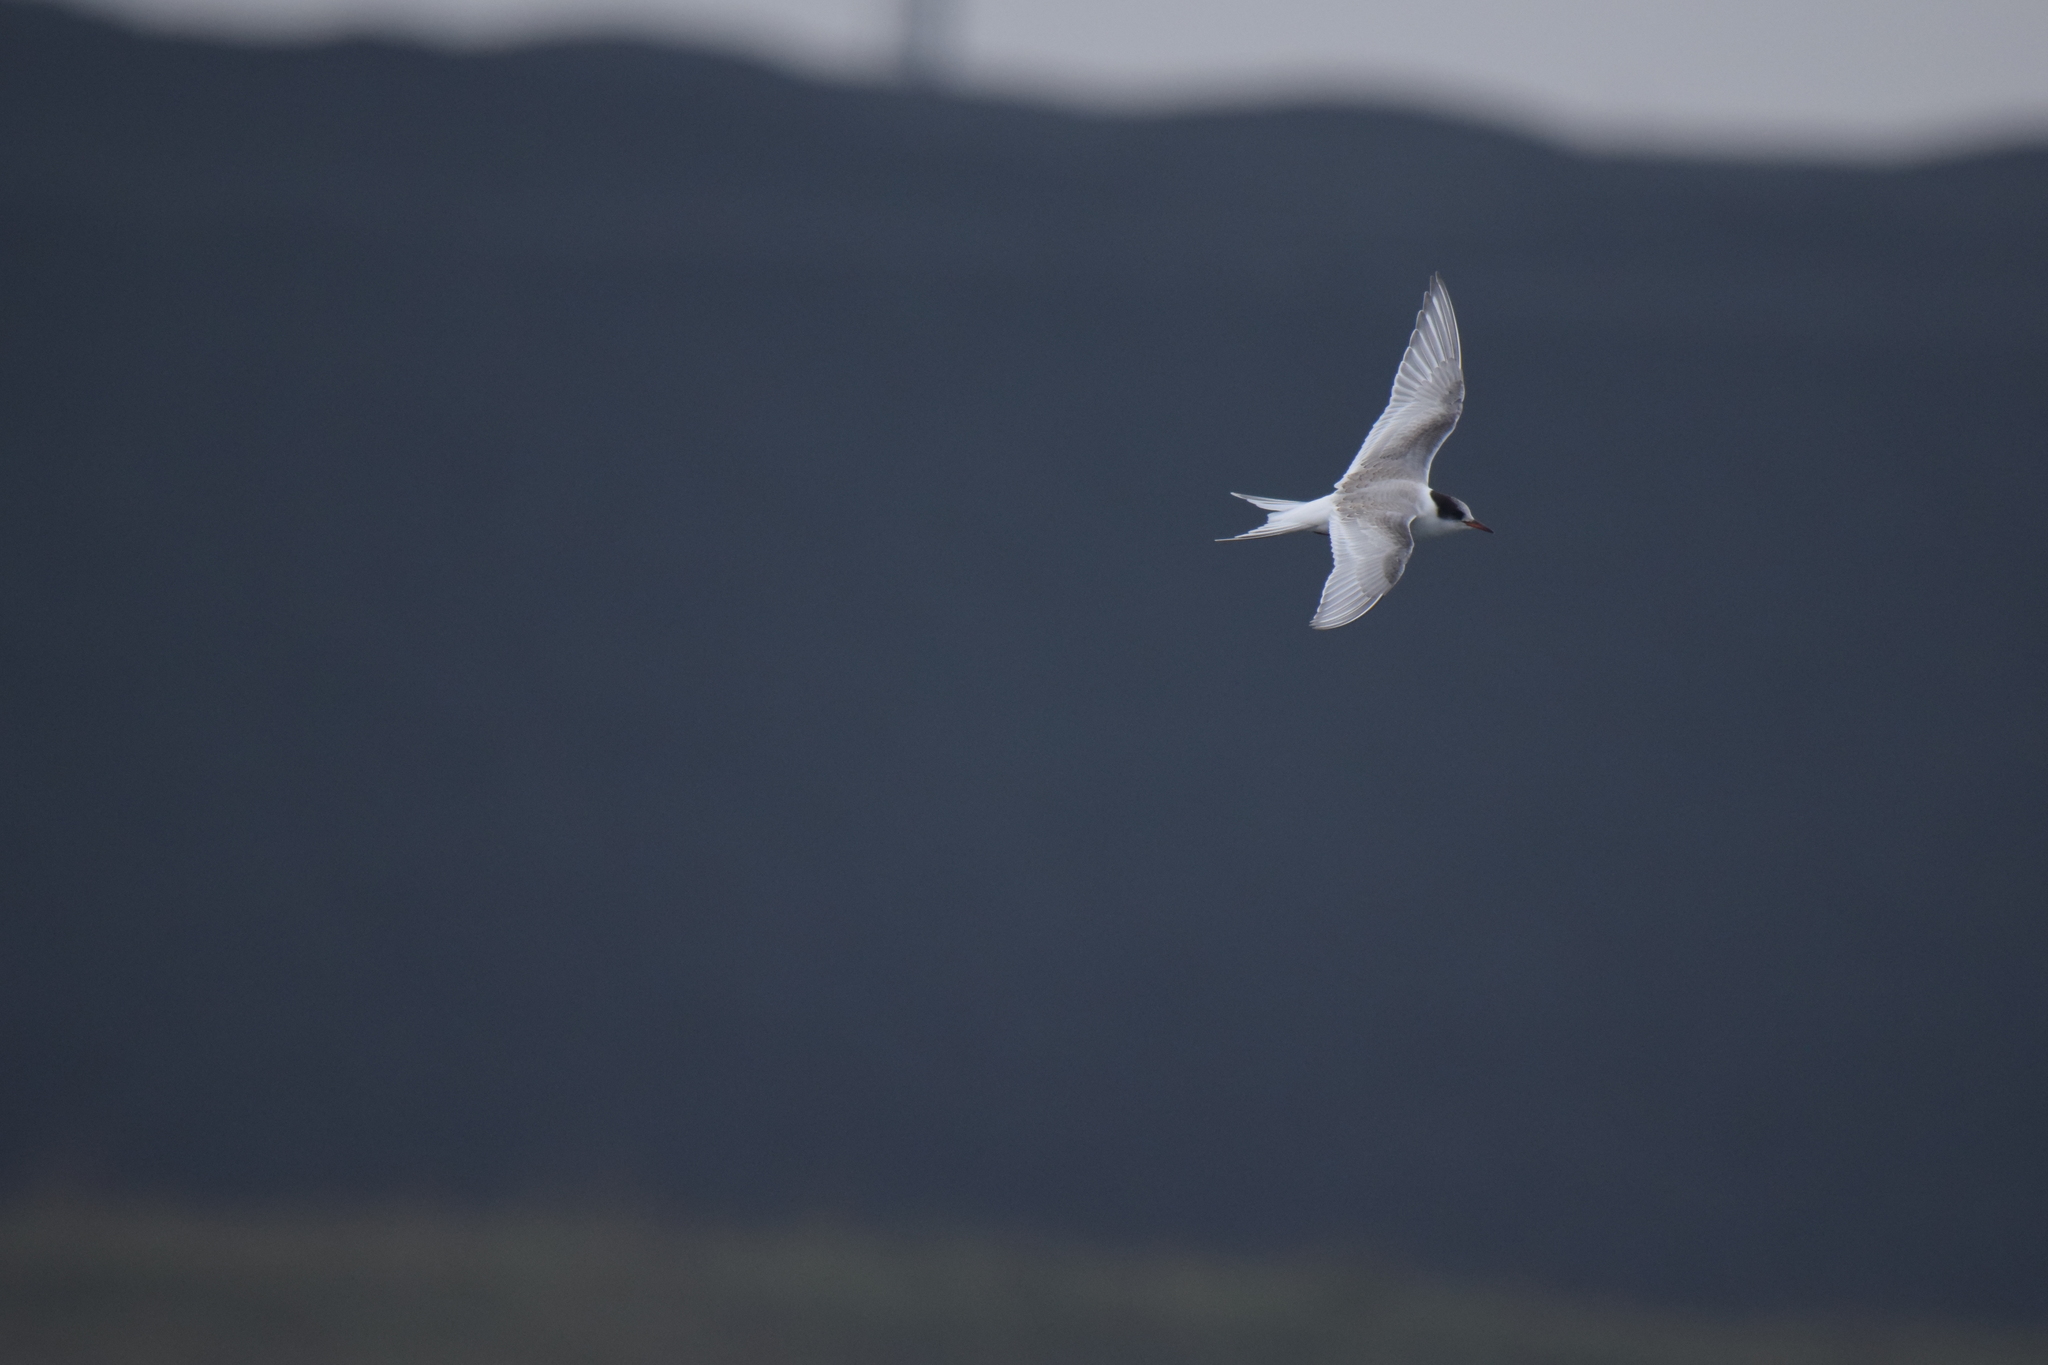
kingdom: Animalia
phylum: Chordata
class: Aves
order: Charadriiformes
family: Laridae
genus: Sterna
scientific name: Sterna paradisaea
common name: Arctic tern
